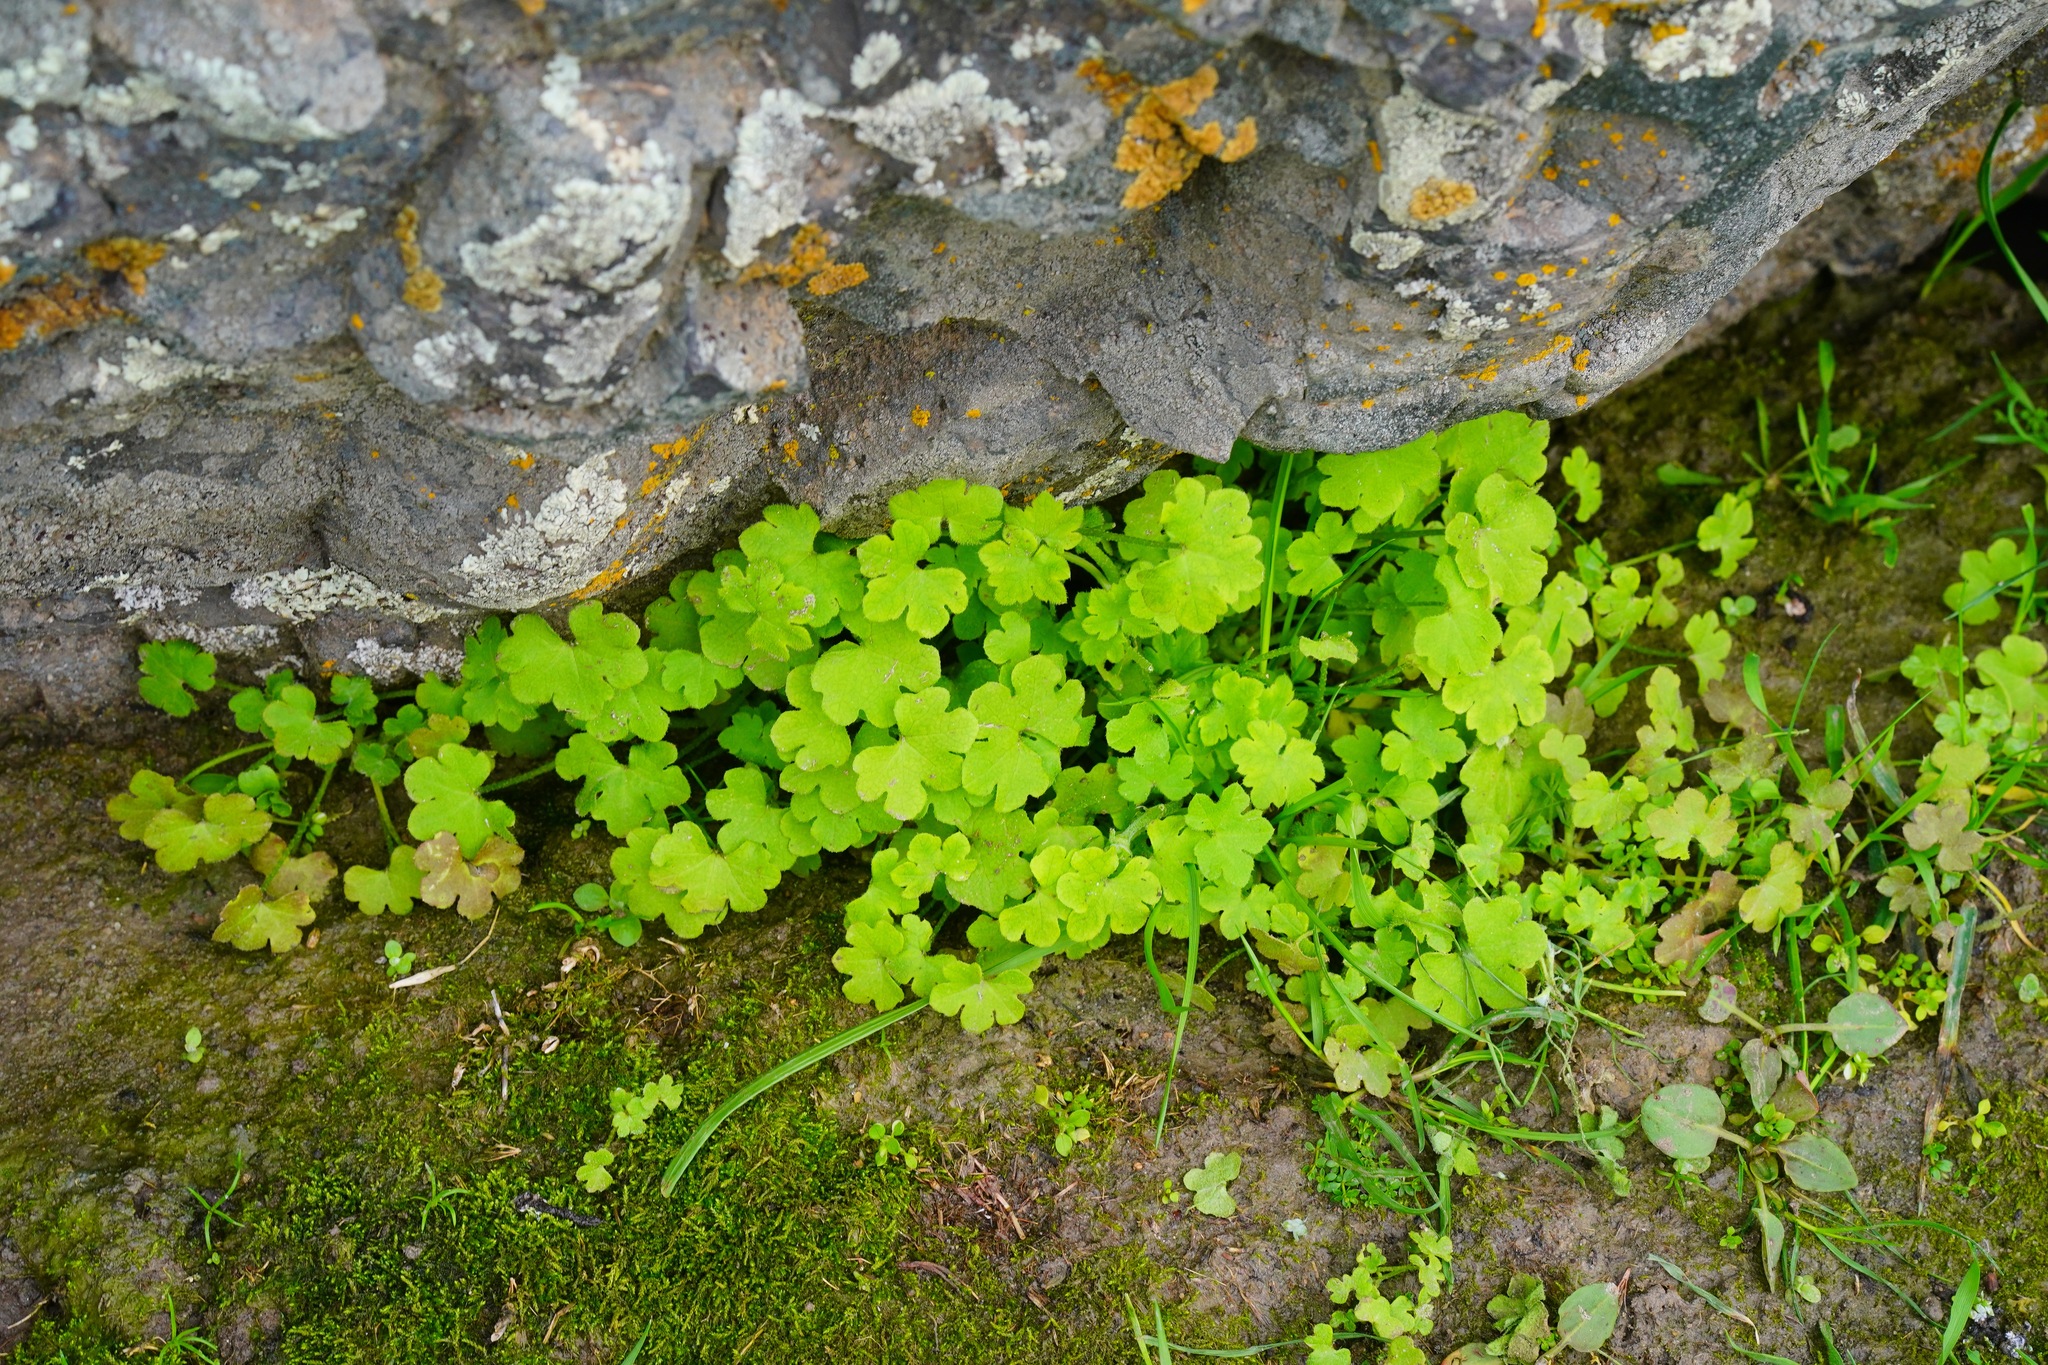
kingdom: Plantae
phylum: Tracheophyta
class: Magnoliopsida
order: Apiales
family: Apiaceae
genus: Bowlesia
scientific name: Bowlesia incana
